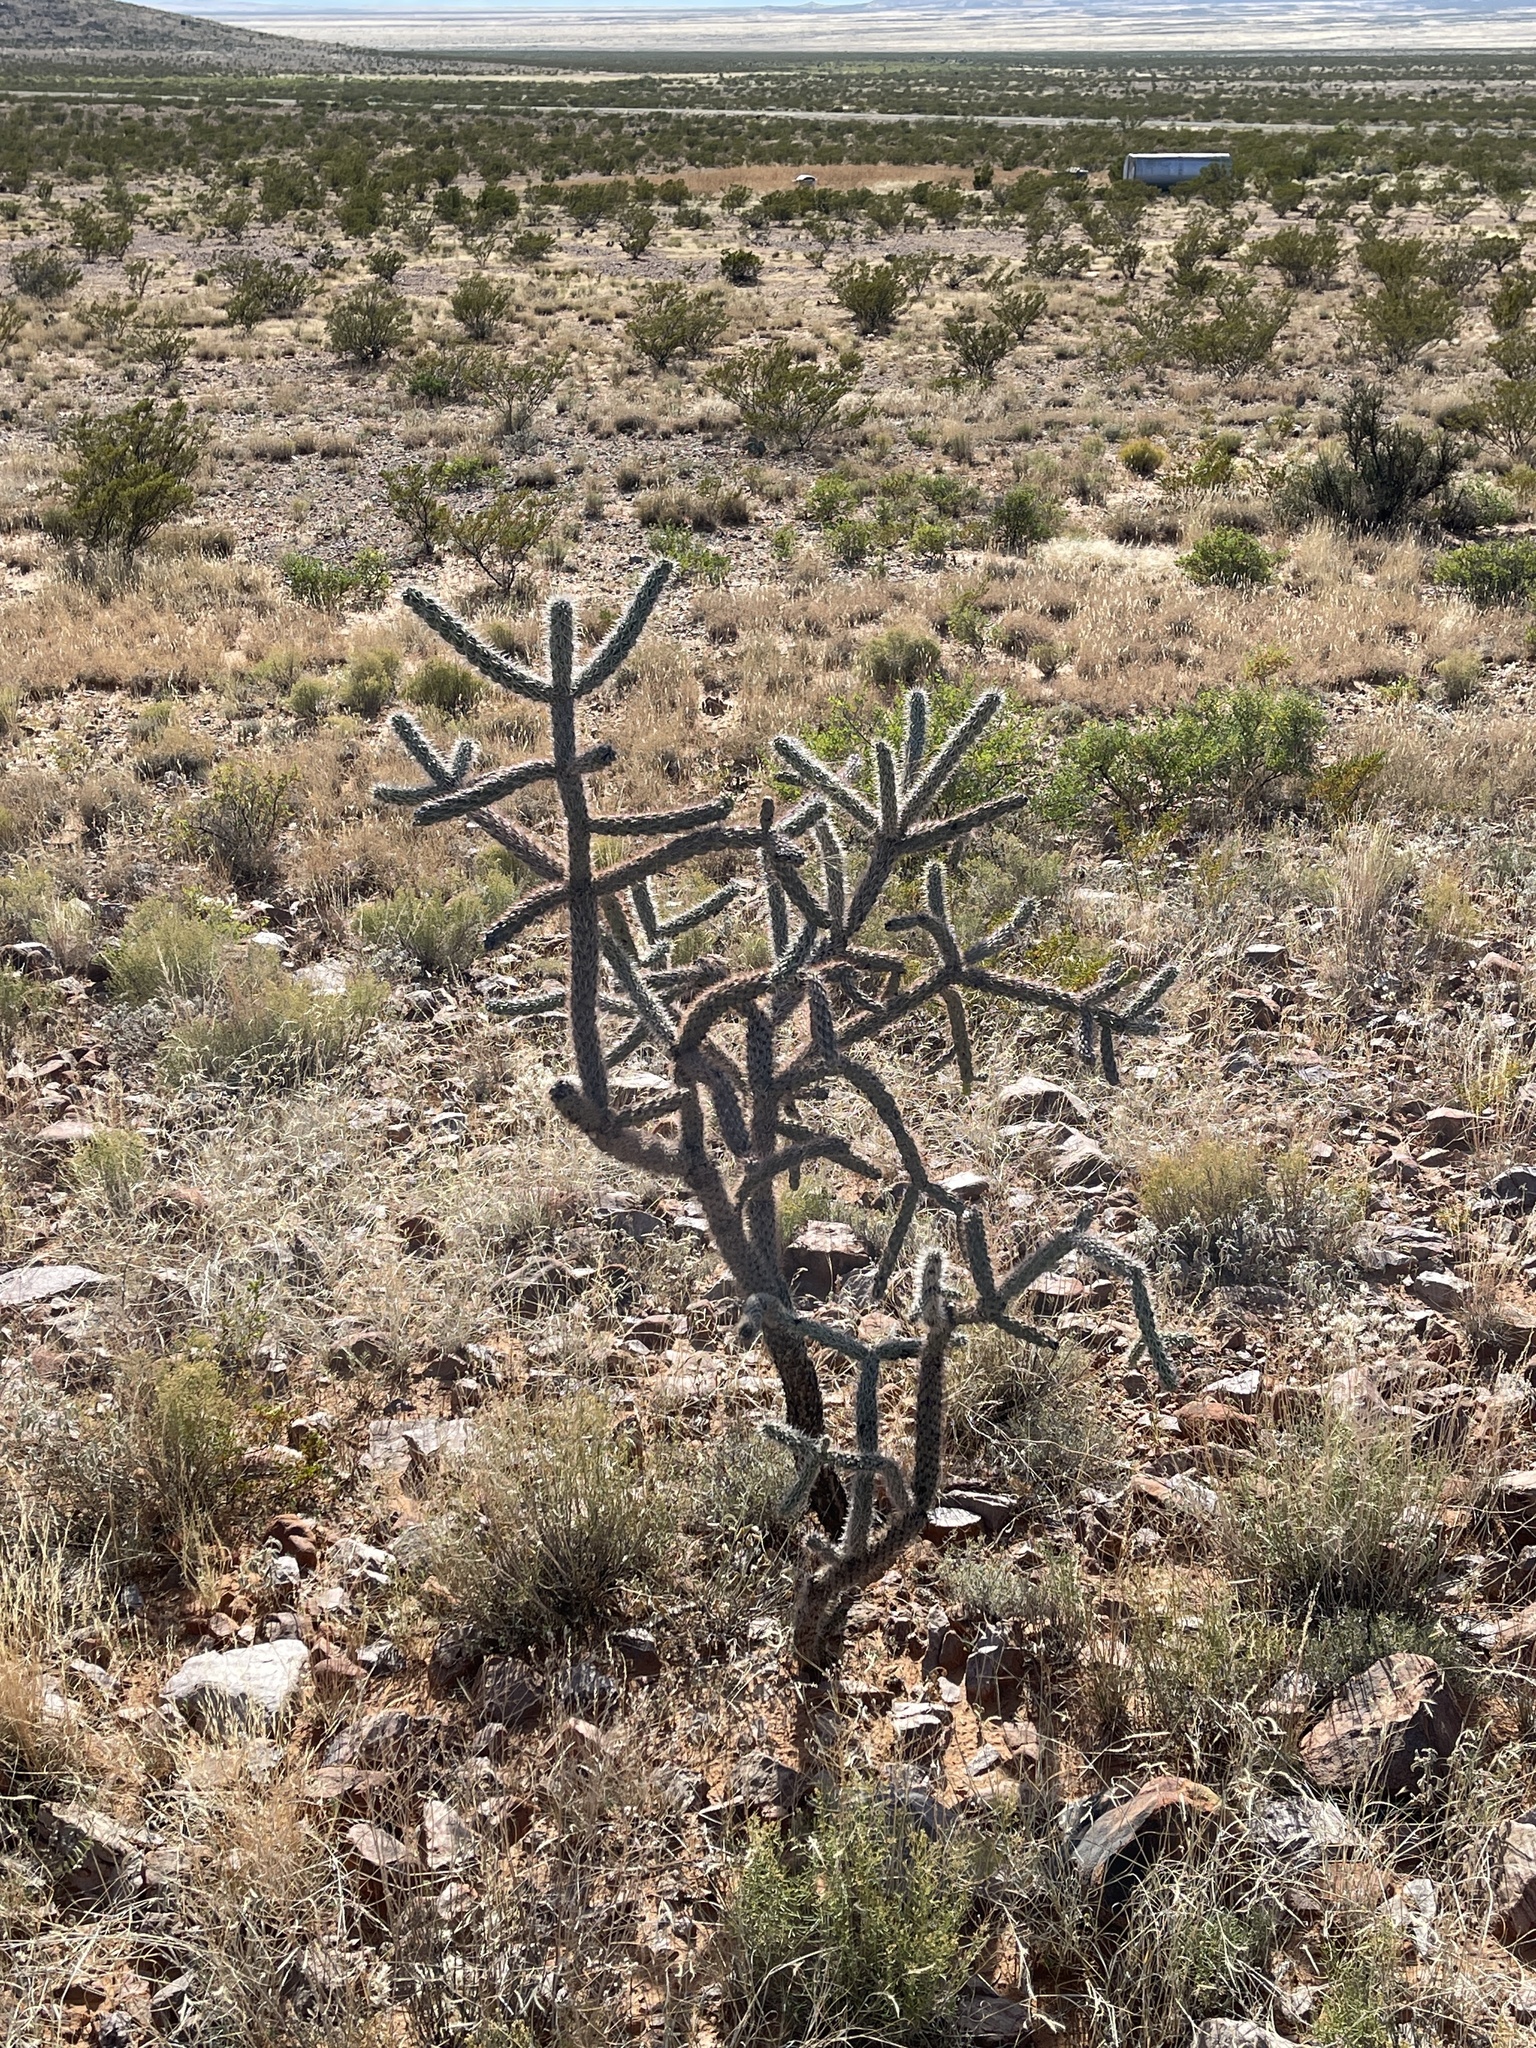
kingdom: Plantae
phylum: Tracheophyta
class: Magnoliopsida
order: Caryophyllales
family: Cactaceae
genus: Cylindropuntia
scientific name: Cylindropuntia imbricata
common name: Candelabrum cactus
